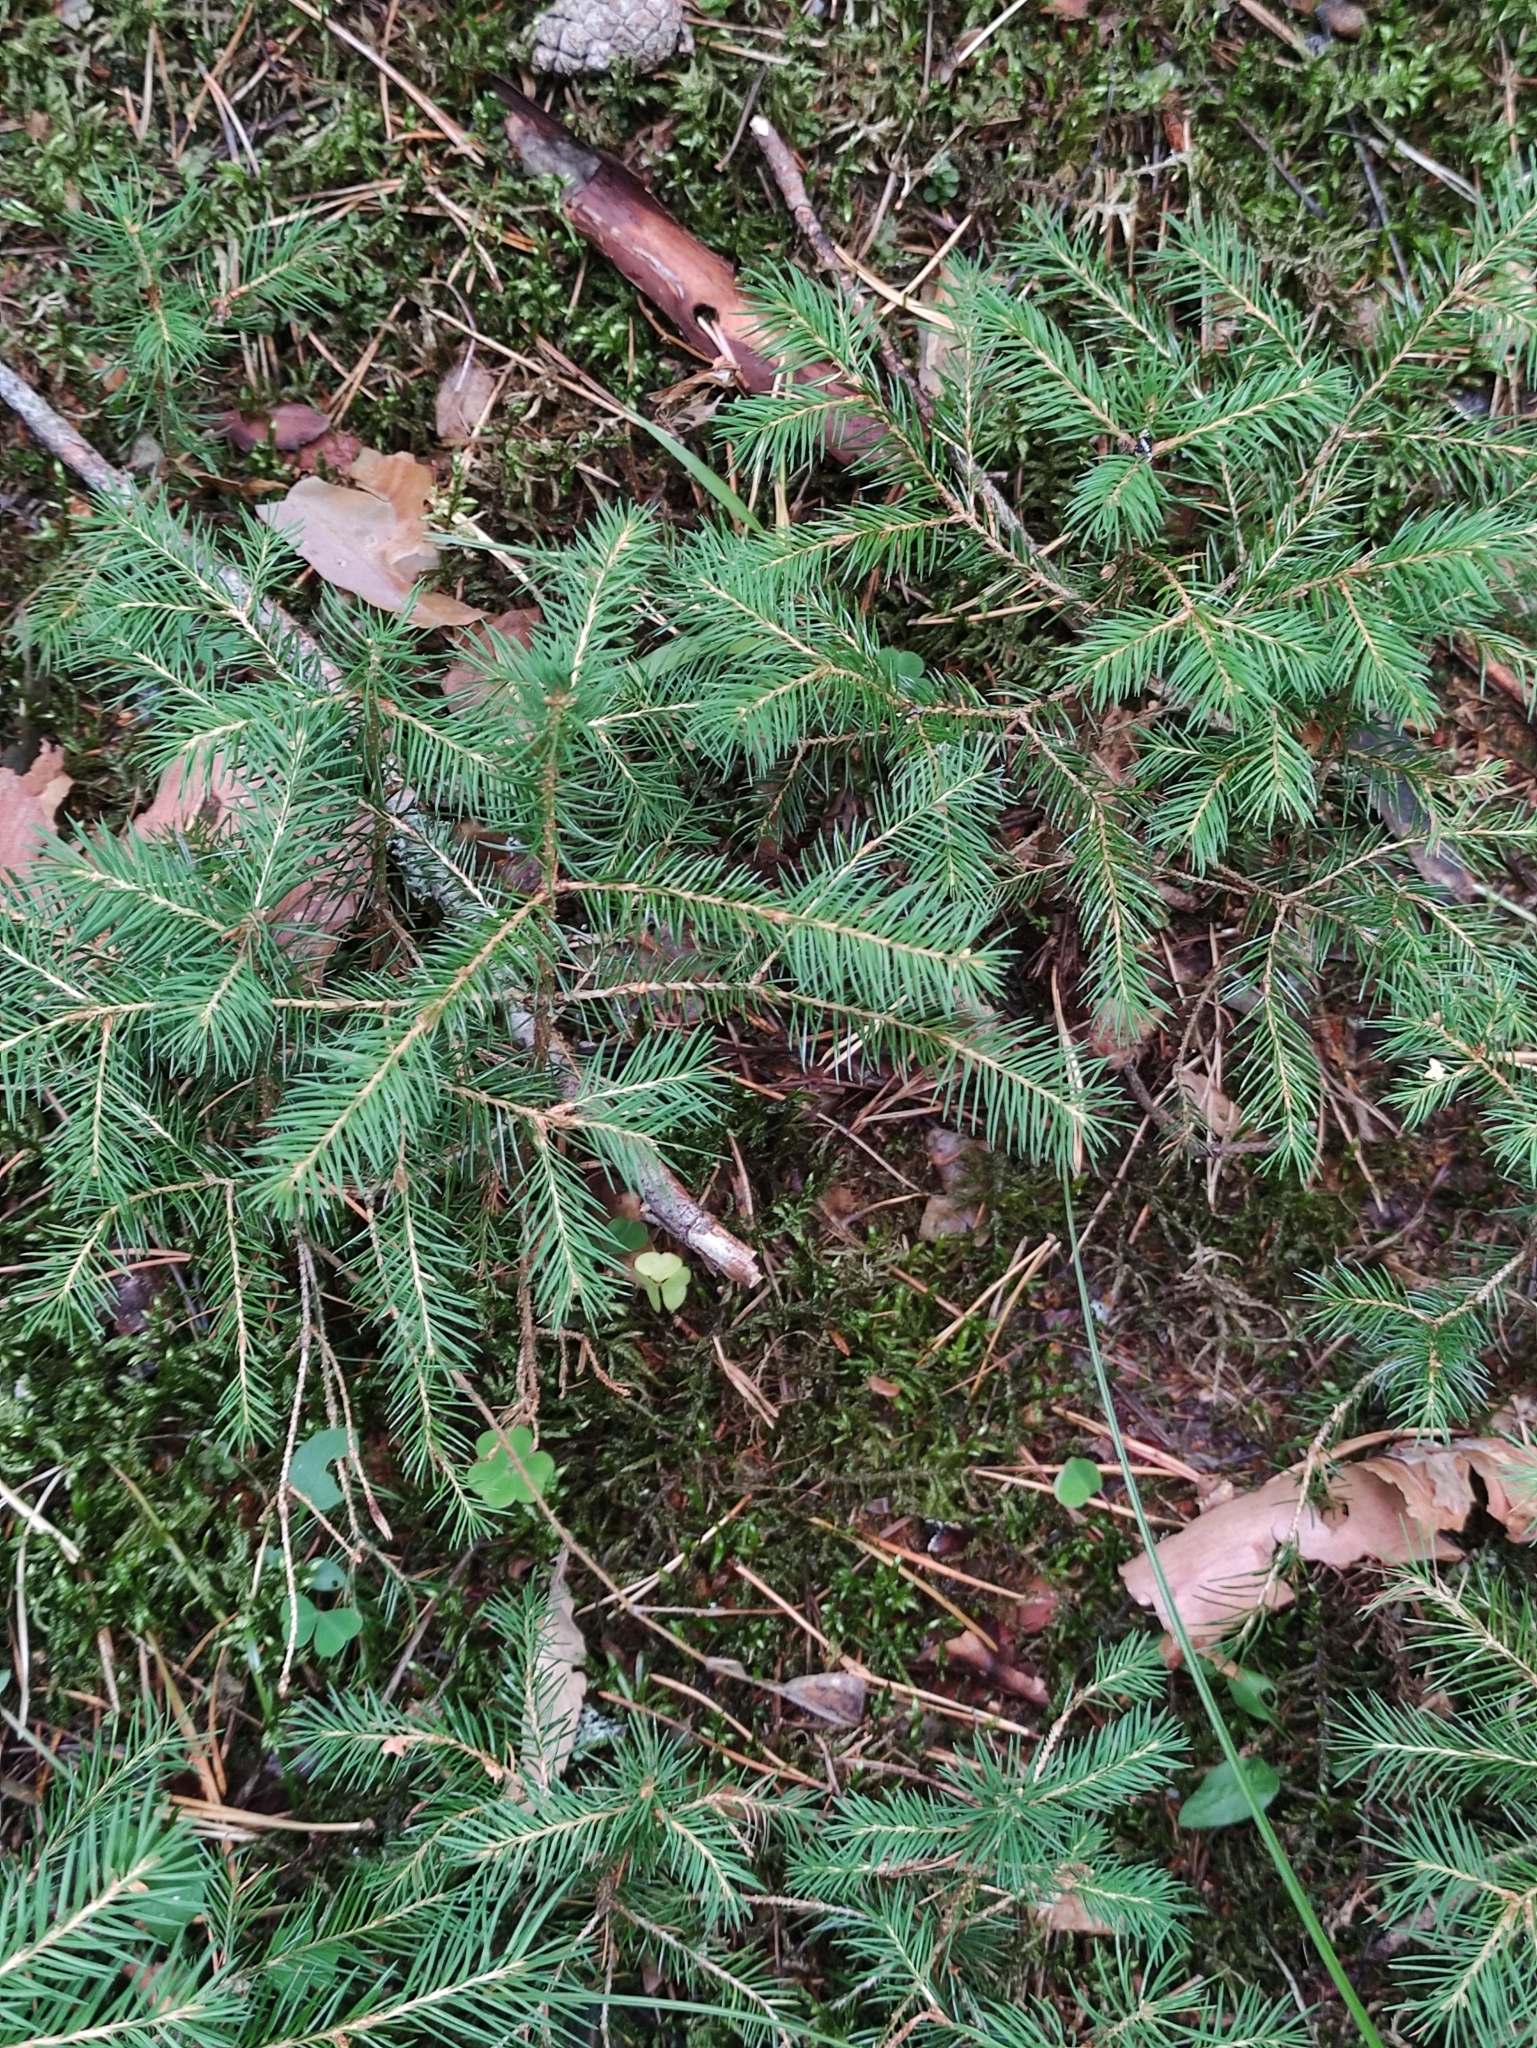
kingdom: Plantae
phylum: Tracheophyta
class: Pinopsida
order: Pinales
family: Pinaceae
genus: Picea
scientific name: Picea abies
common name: Norway spruce
